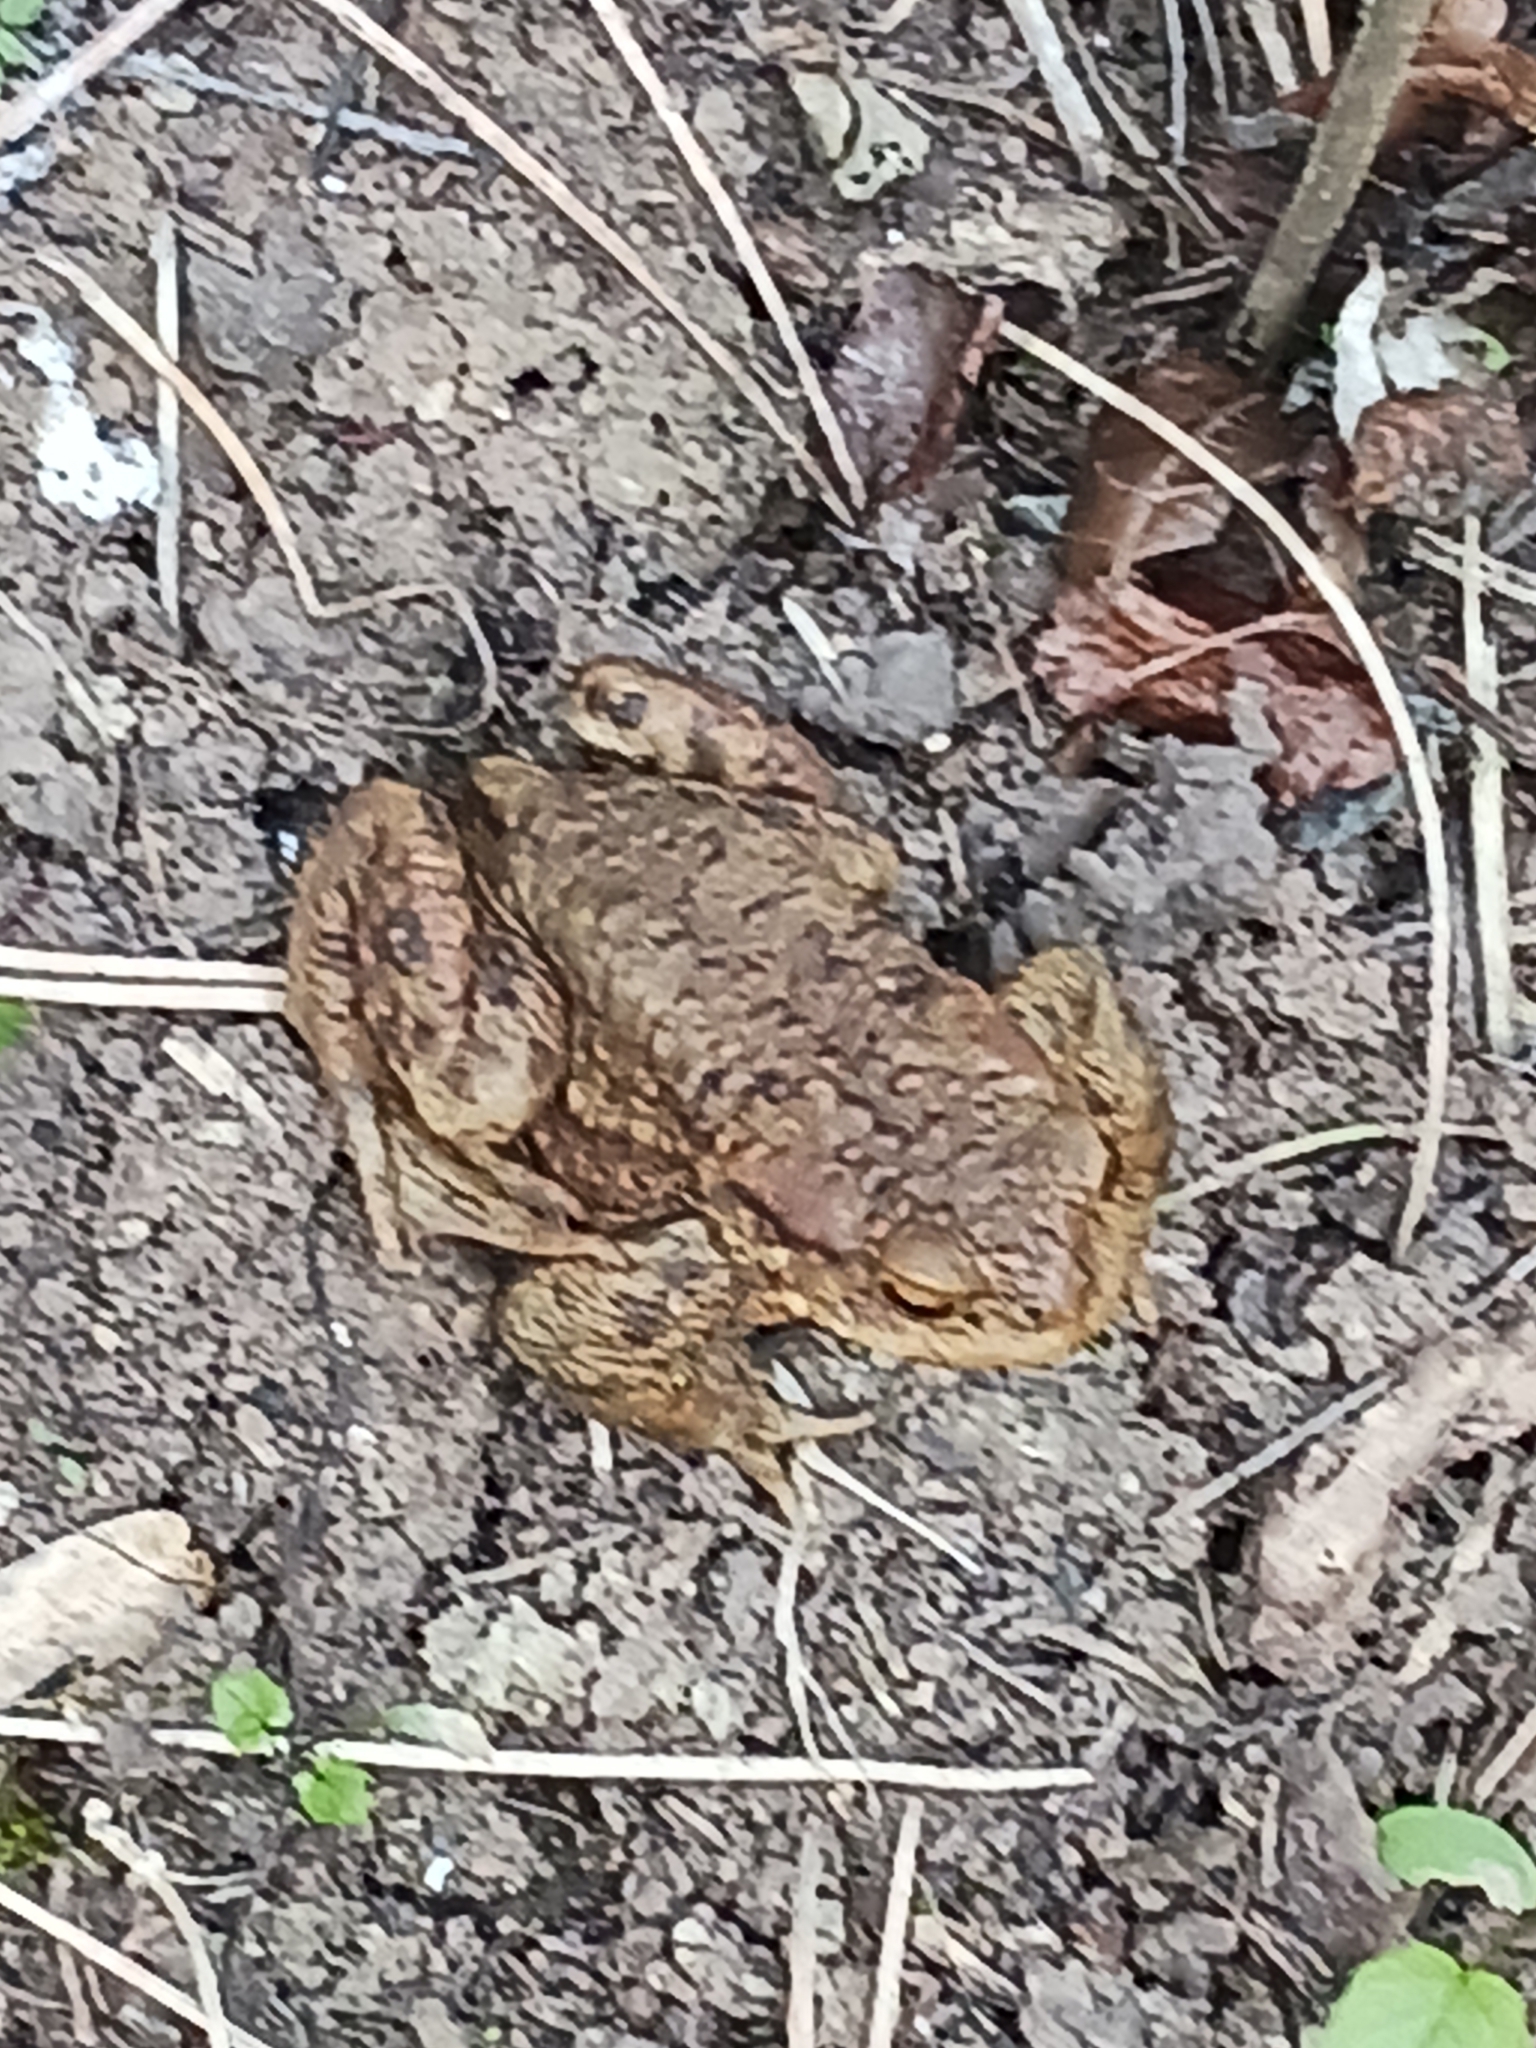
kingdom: Animalia
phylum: Chordata
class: Amphibia
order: Anura
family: Bufonidae
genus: Bufo
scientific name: Bufo bufo
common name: Common toad
